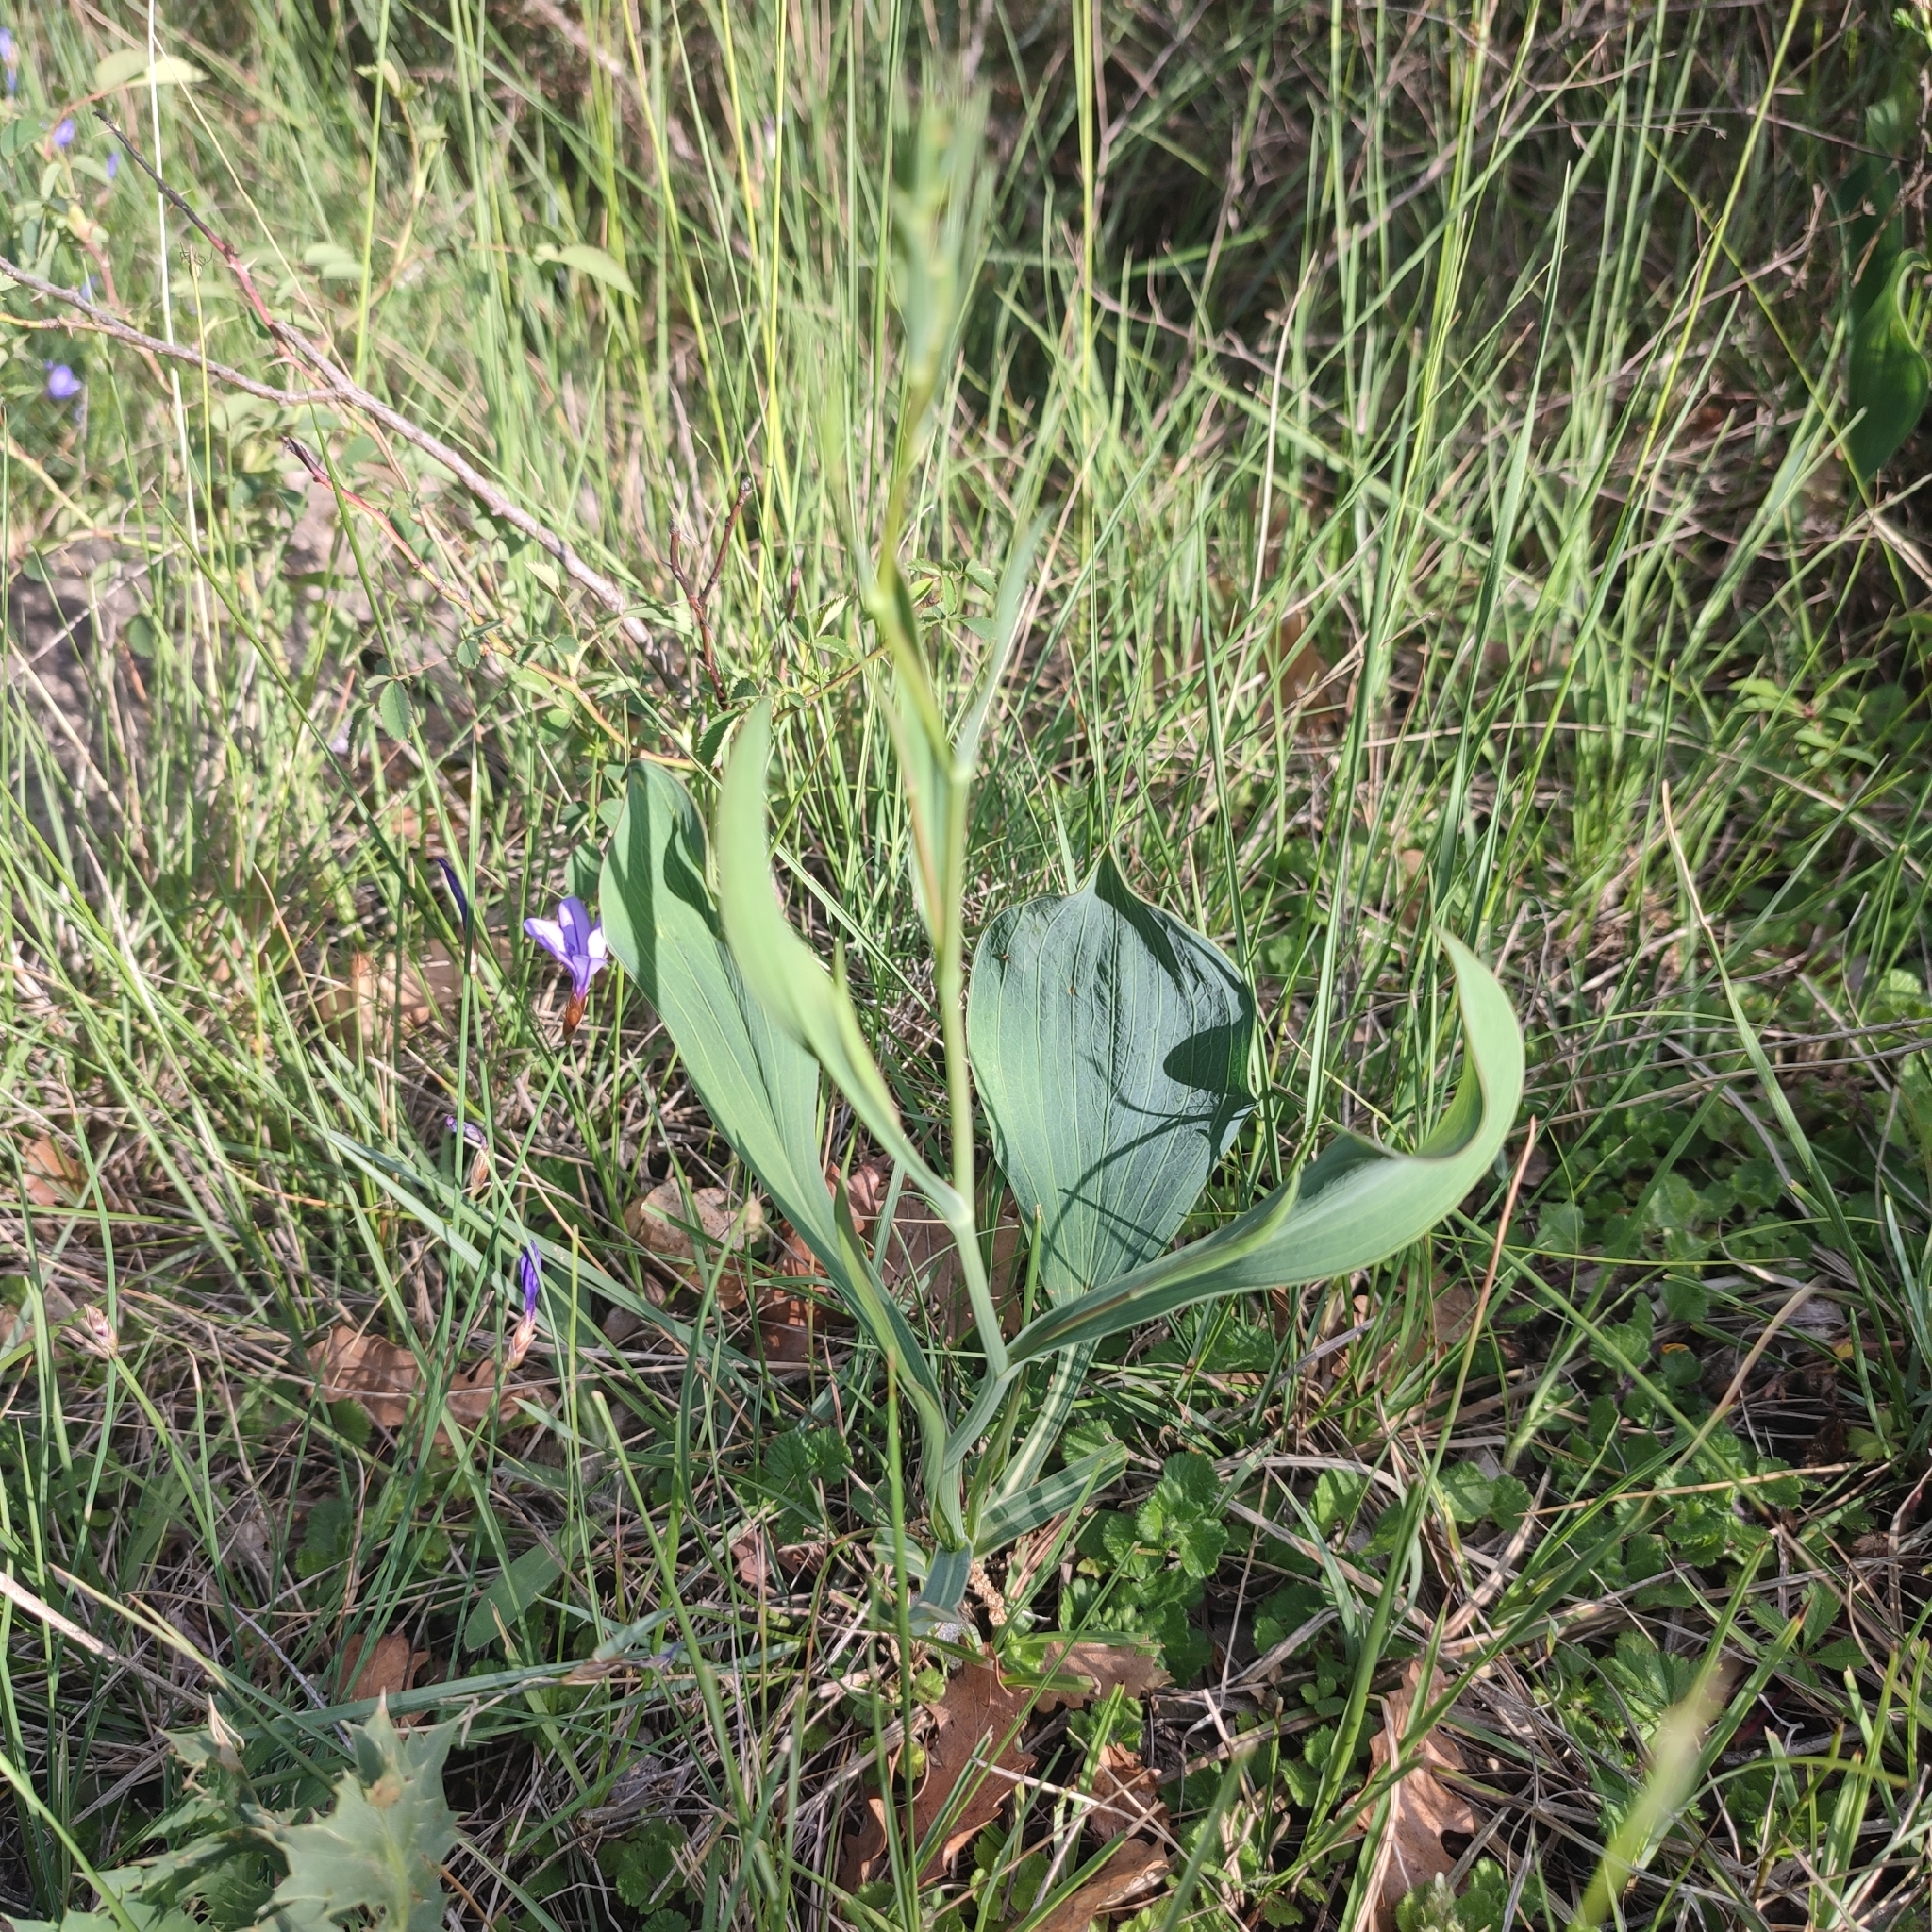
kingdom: Plantae
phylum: Tracheophyta
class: Magnoliopsida
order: Apiales
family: Apiaceae
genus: Bupleurum
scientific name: Bupleurum rigidum
